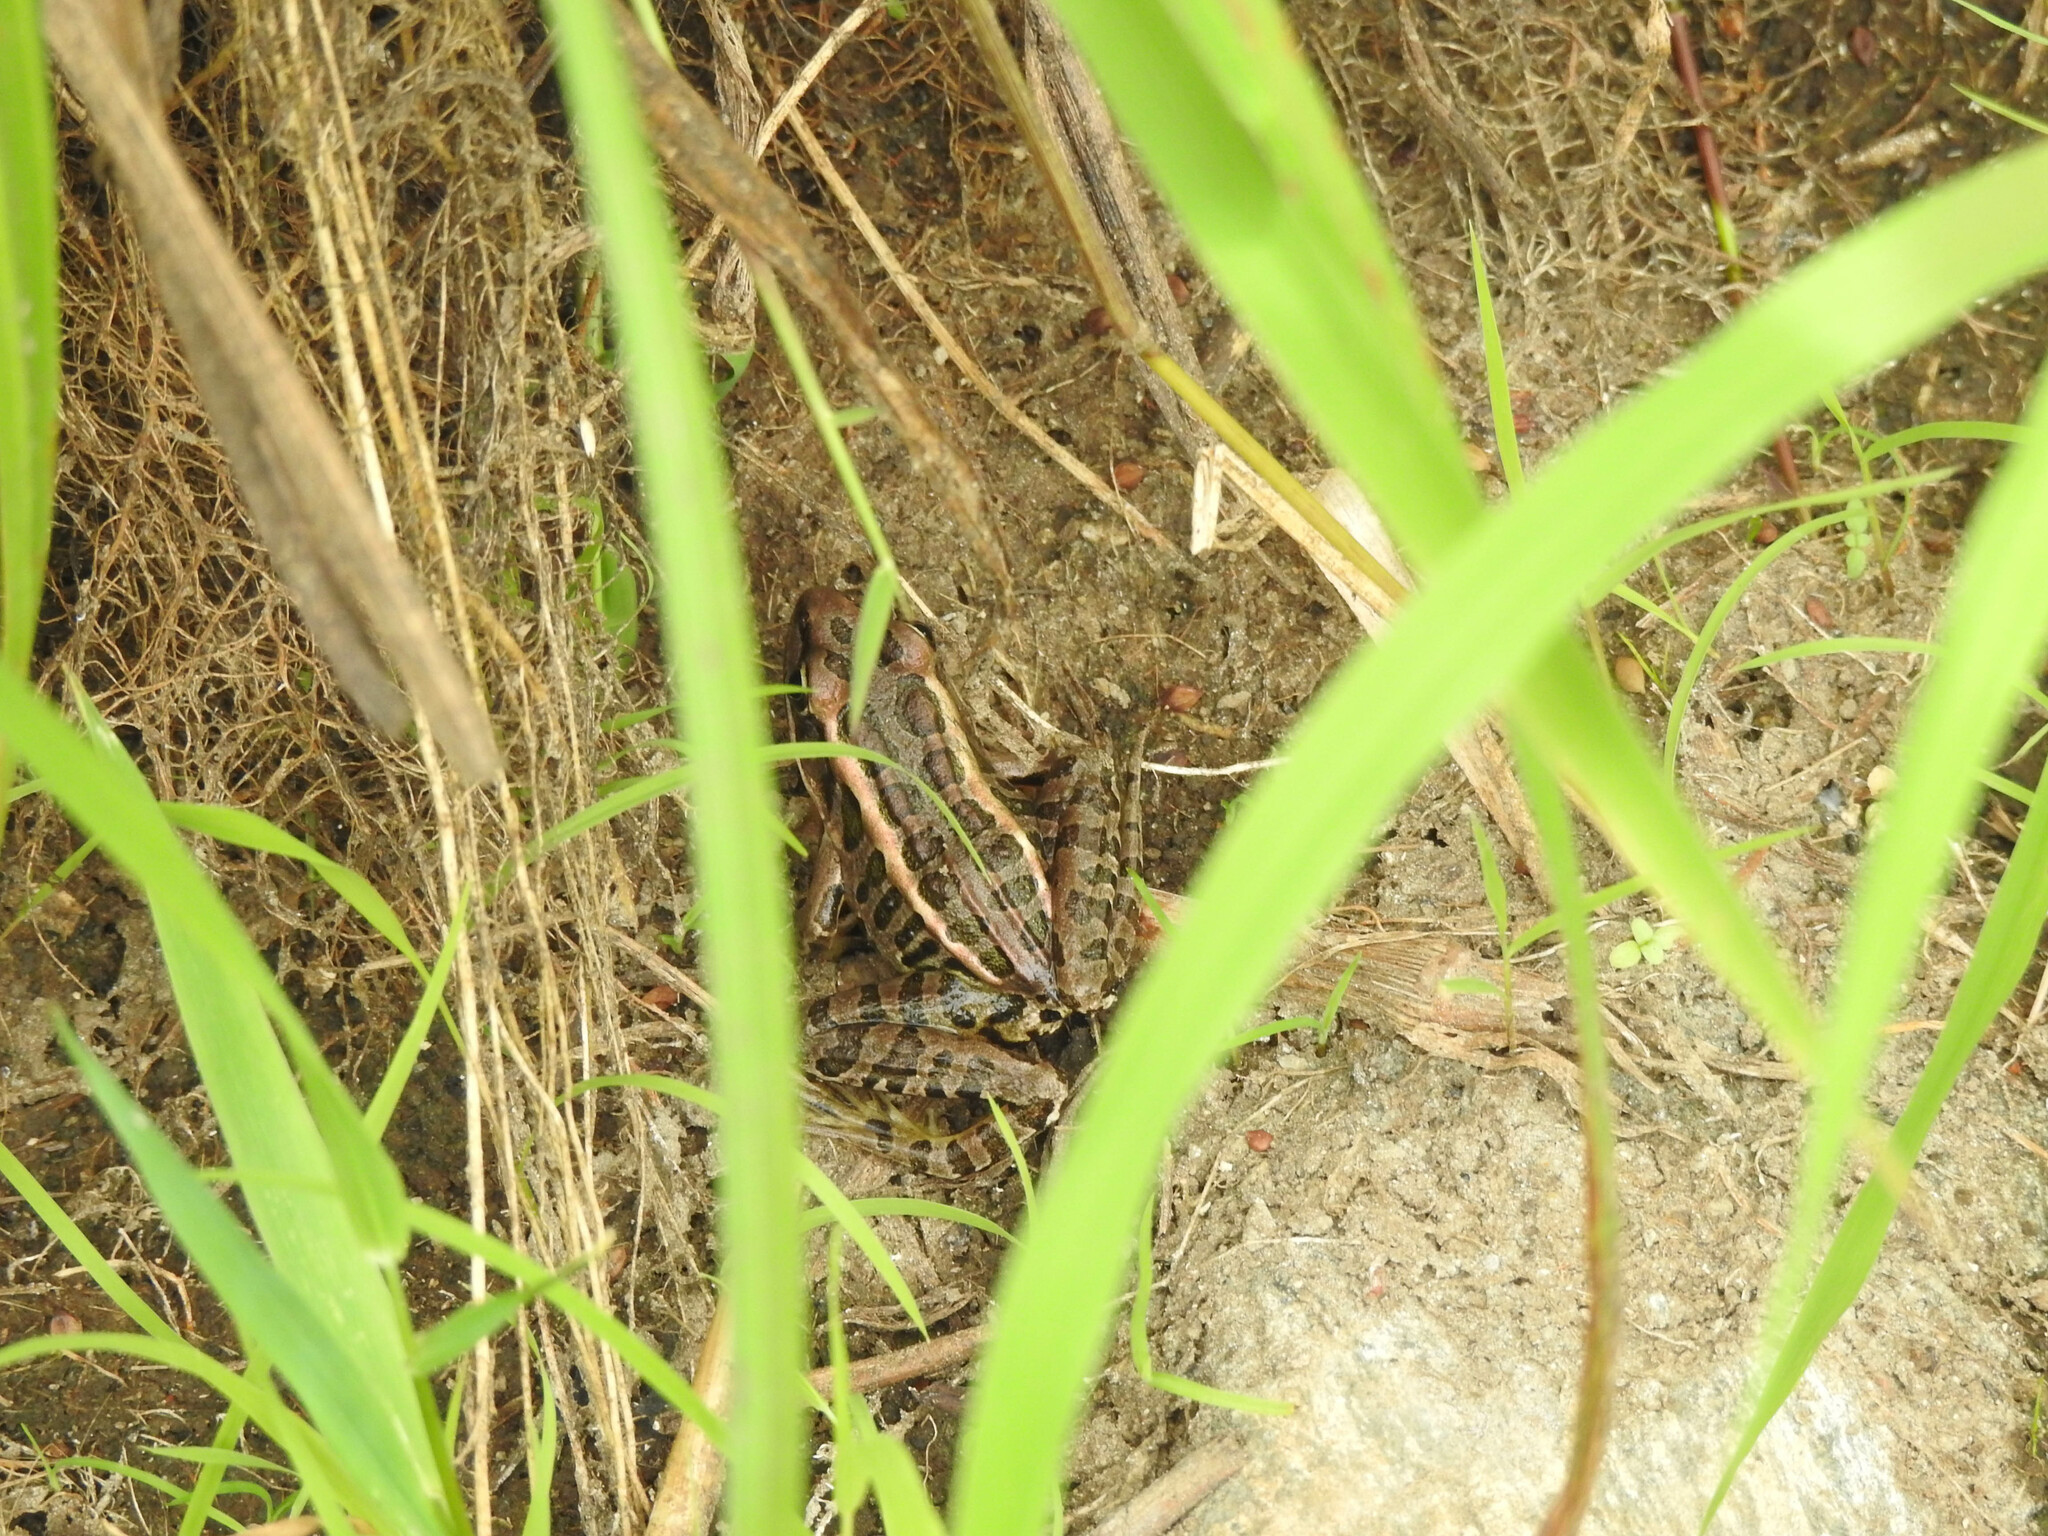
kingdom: Animalia
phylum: Chordata
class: Amphibia
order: Anura
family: Ranidae
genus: Lithobates
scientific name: Lithobates palustris
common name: Pickerel frog
